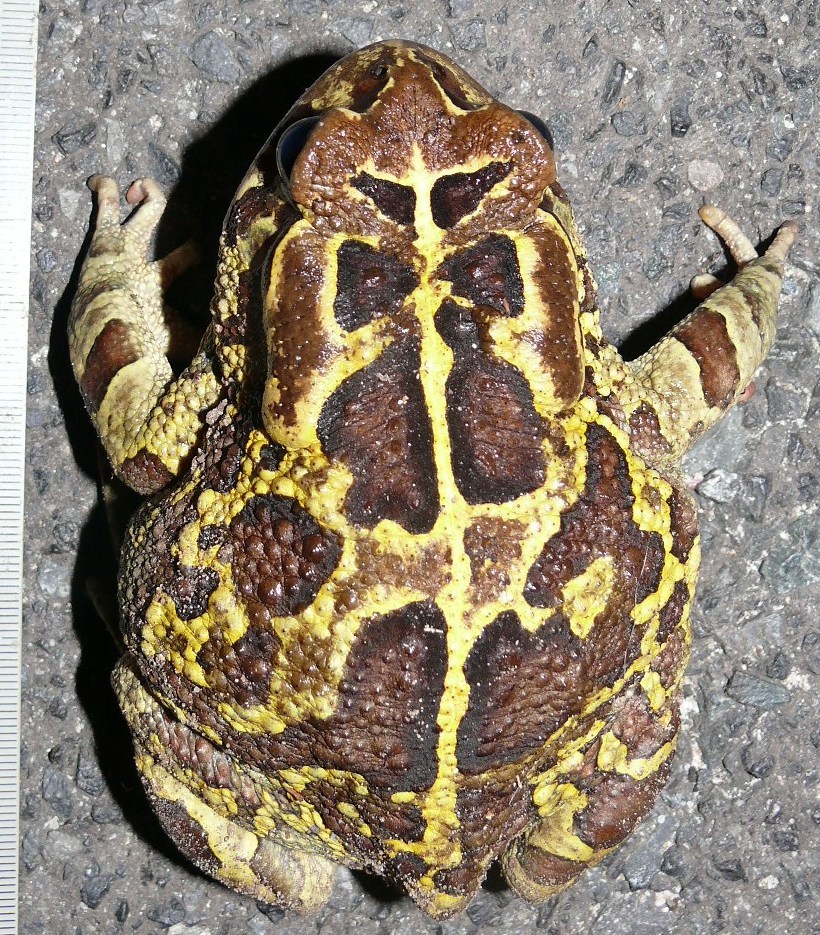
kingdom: Animalia
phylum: Chordata
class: Amphibia
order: Anura
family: Bufonidae
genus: Sclerophrys
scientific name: Sclerophrys pantherina
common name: Panther toad
